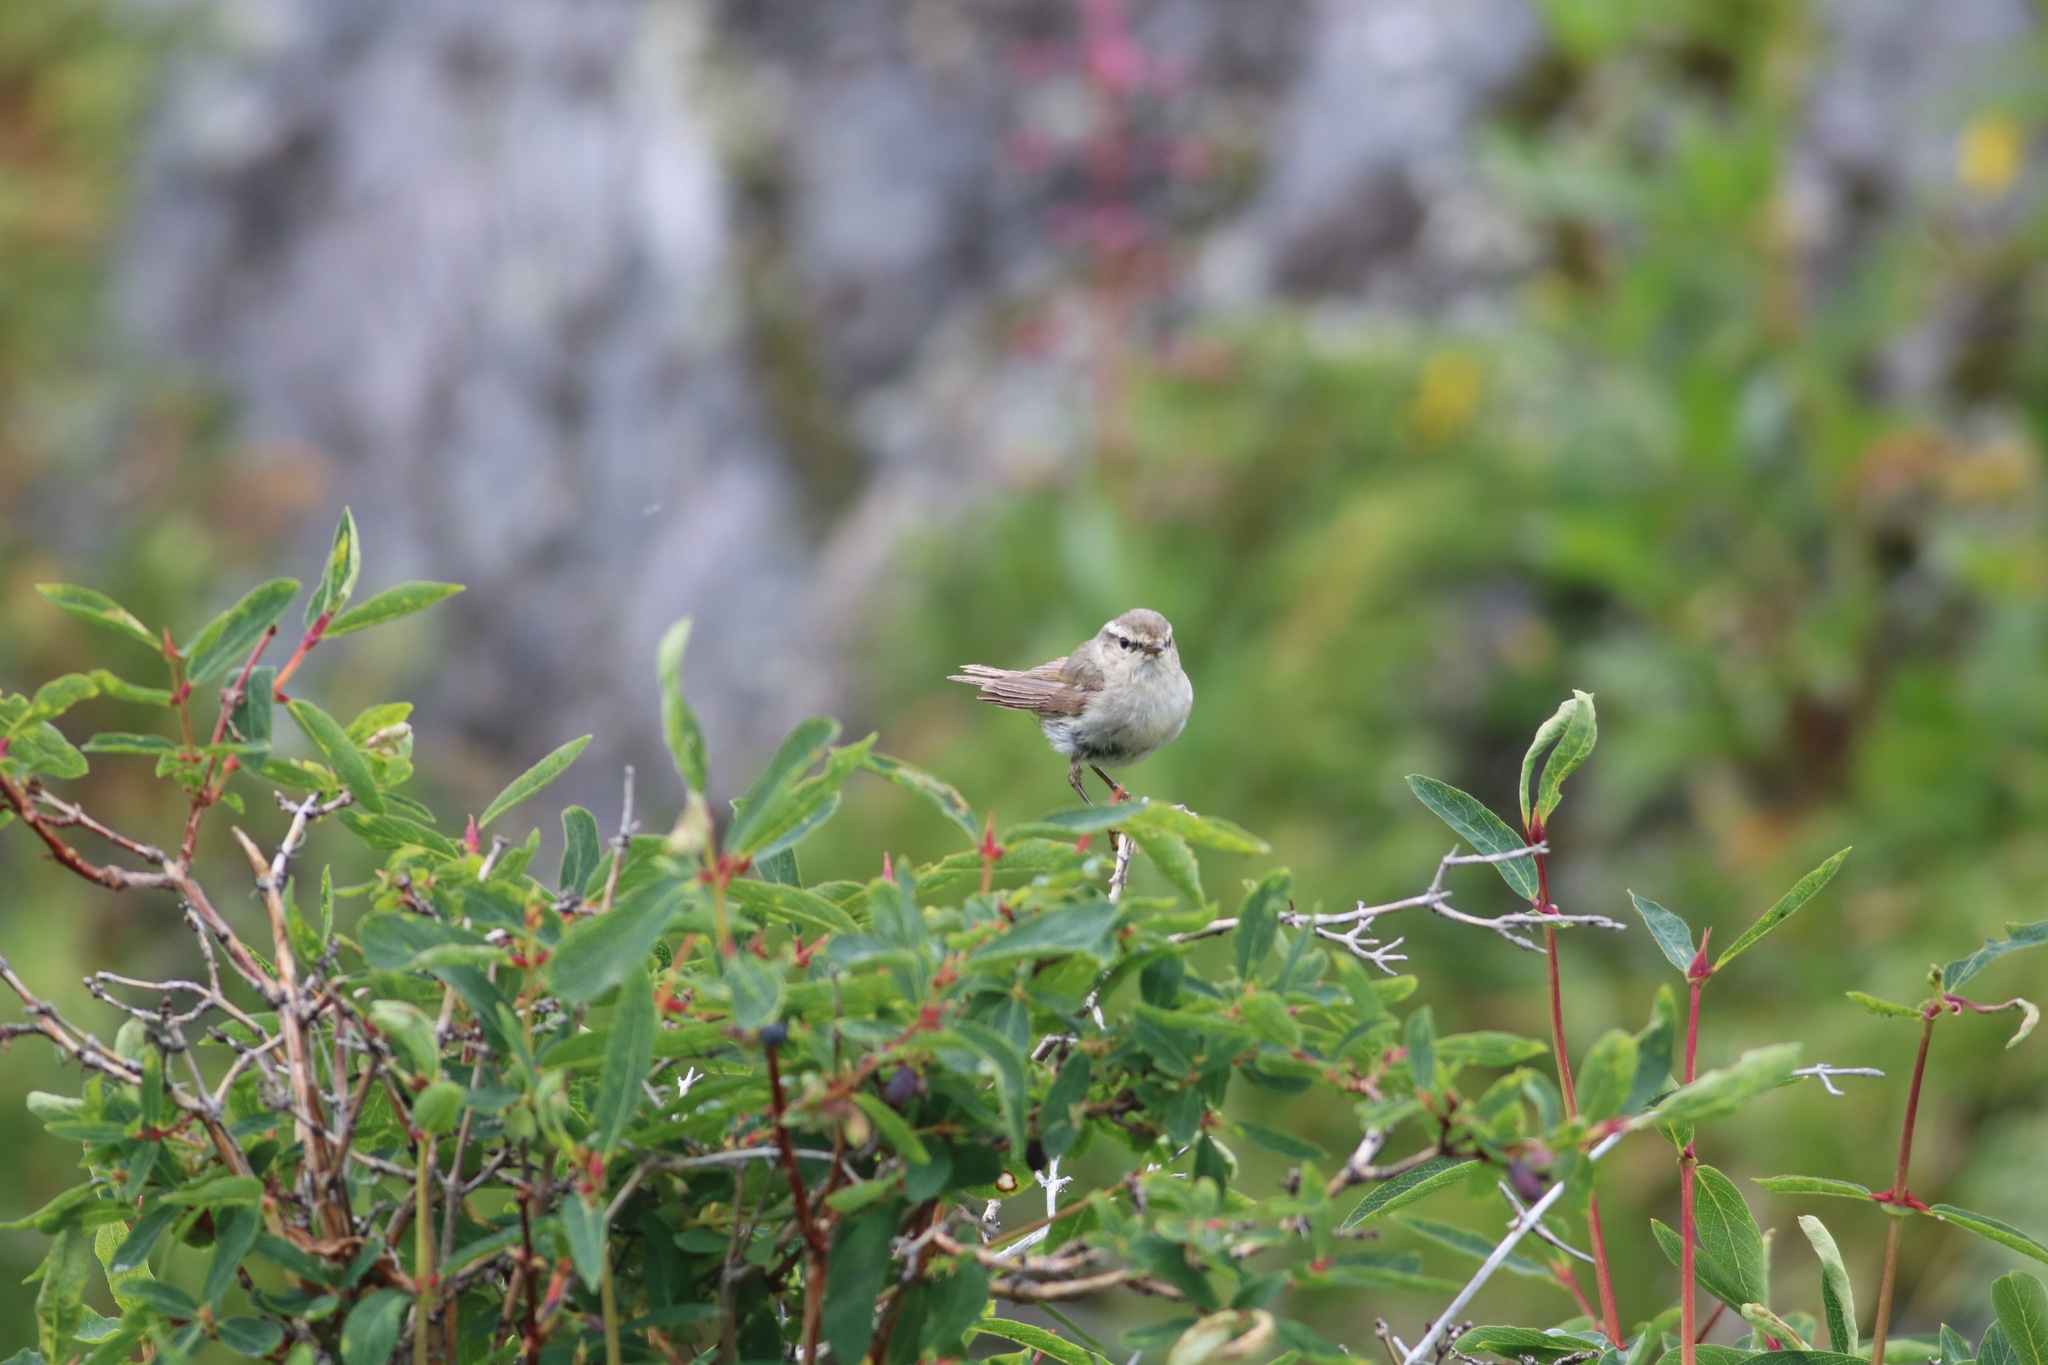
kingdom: Animalia
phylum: Chordata
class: Aves
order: Passeriformes
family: Phylloscopidae
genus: Phylloscopus
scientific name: Phylloscopus humei
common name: Hume's leaf warbler
